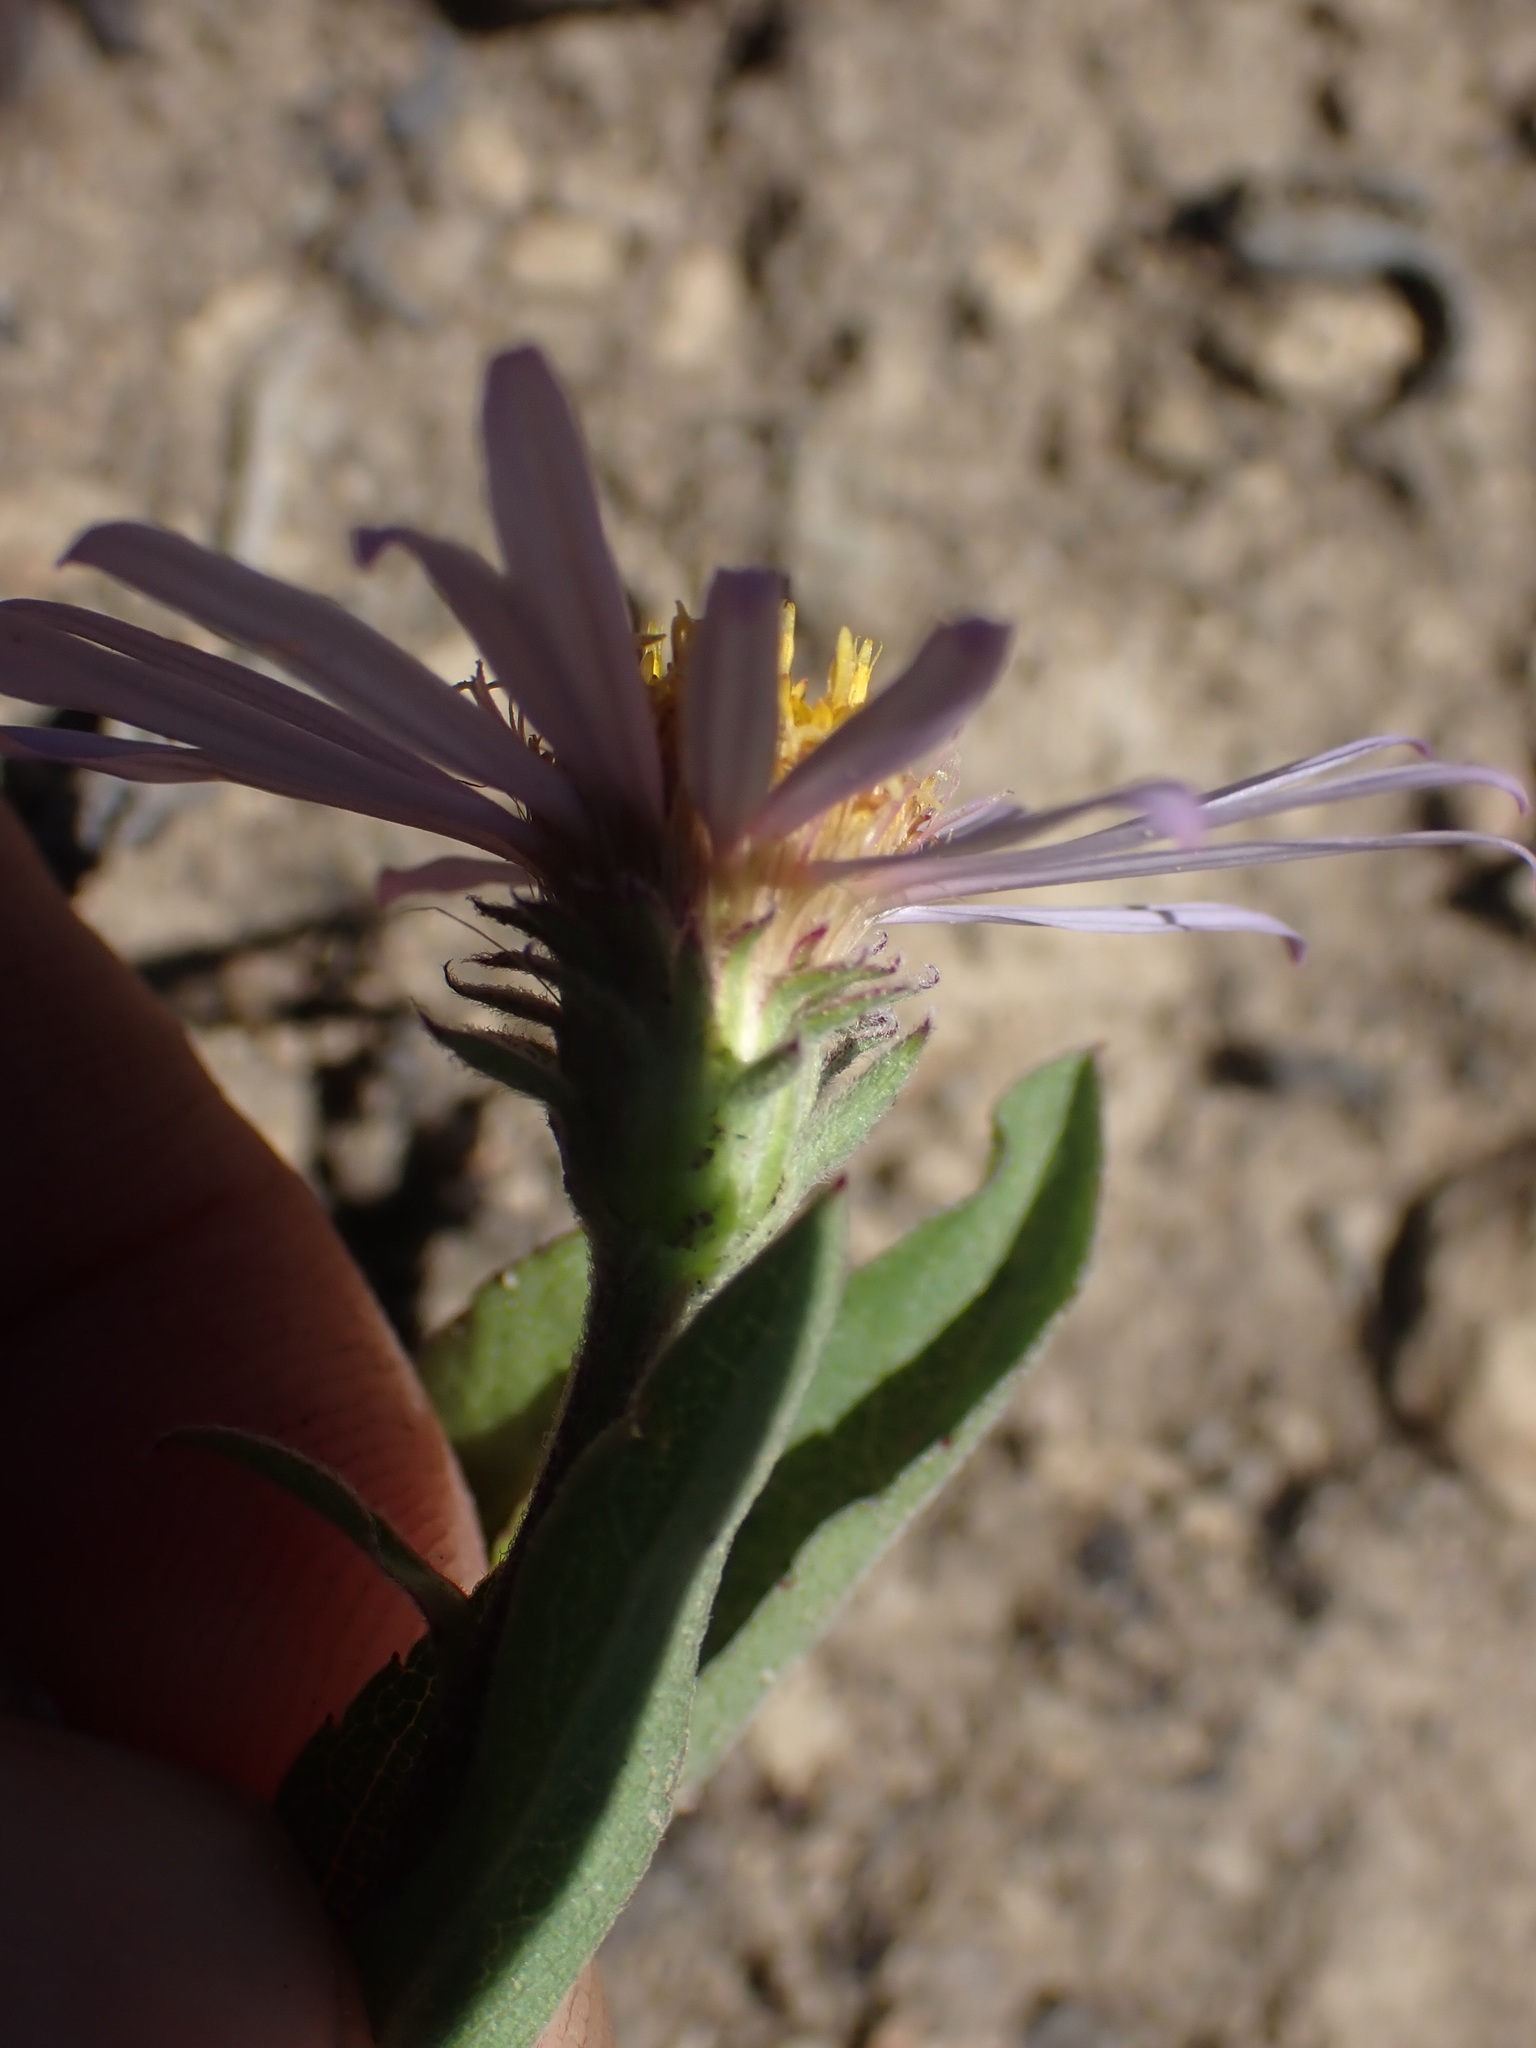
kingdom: Plantae
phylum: Tracheophyta
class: Magnoliopsida
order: Asterales
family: Asteraceae
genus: Eurybia
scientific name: Eurybia sibirica
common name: Arctic aster
